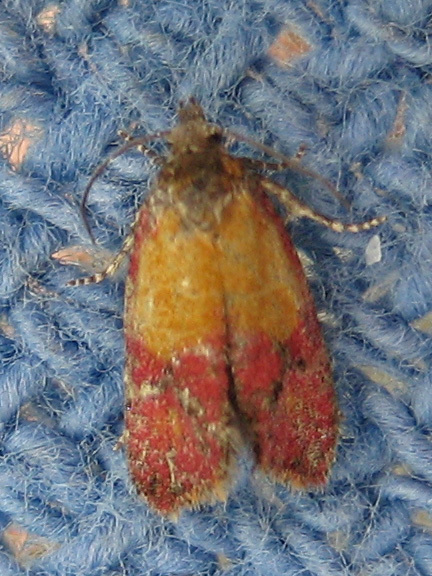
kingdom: Animalia
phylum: Arthropoda
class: Insecta
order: Lepidoptera
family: Tortricidae
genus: Conchylis
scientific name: Conchylis oenotherana
